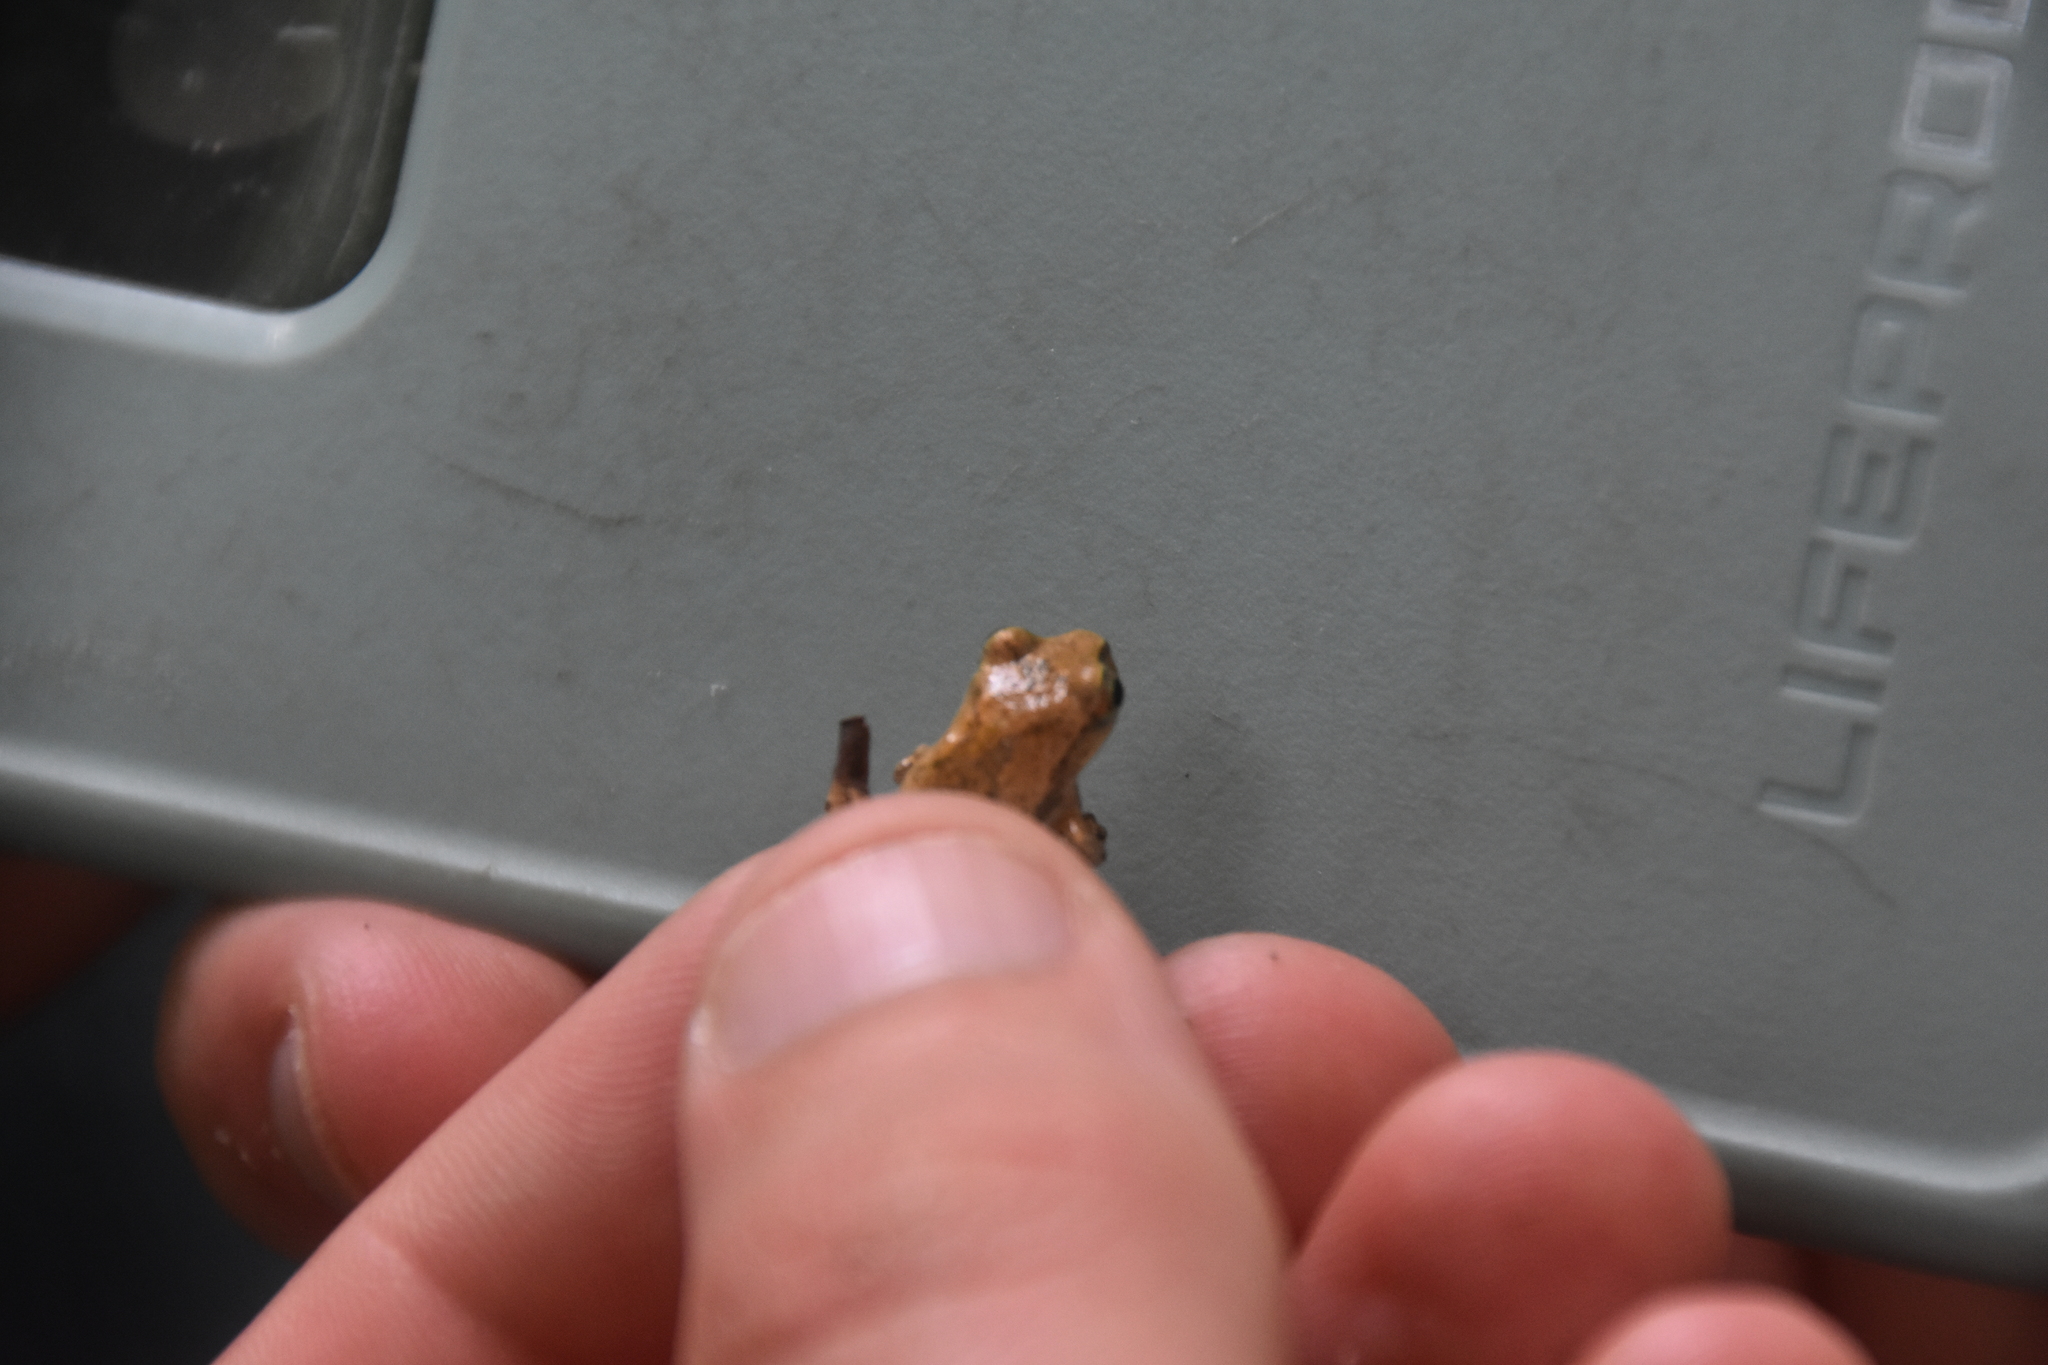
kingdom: Animalia
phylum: Chordata
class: Amphibia
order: Anura
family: Hylidae
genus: Pseudacris
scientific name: Pseudacris crucifer
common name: Spring peeper
